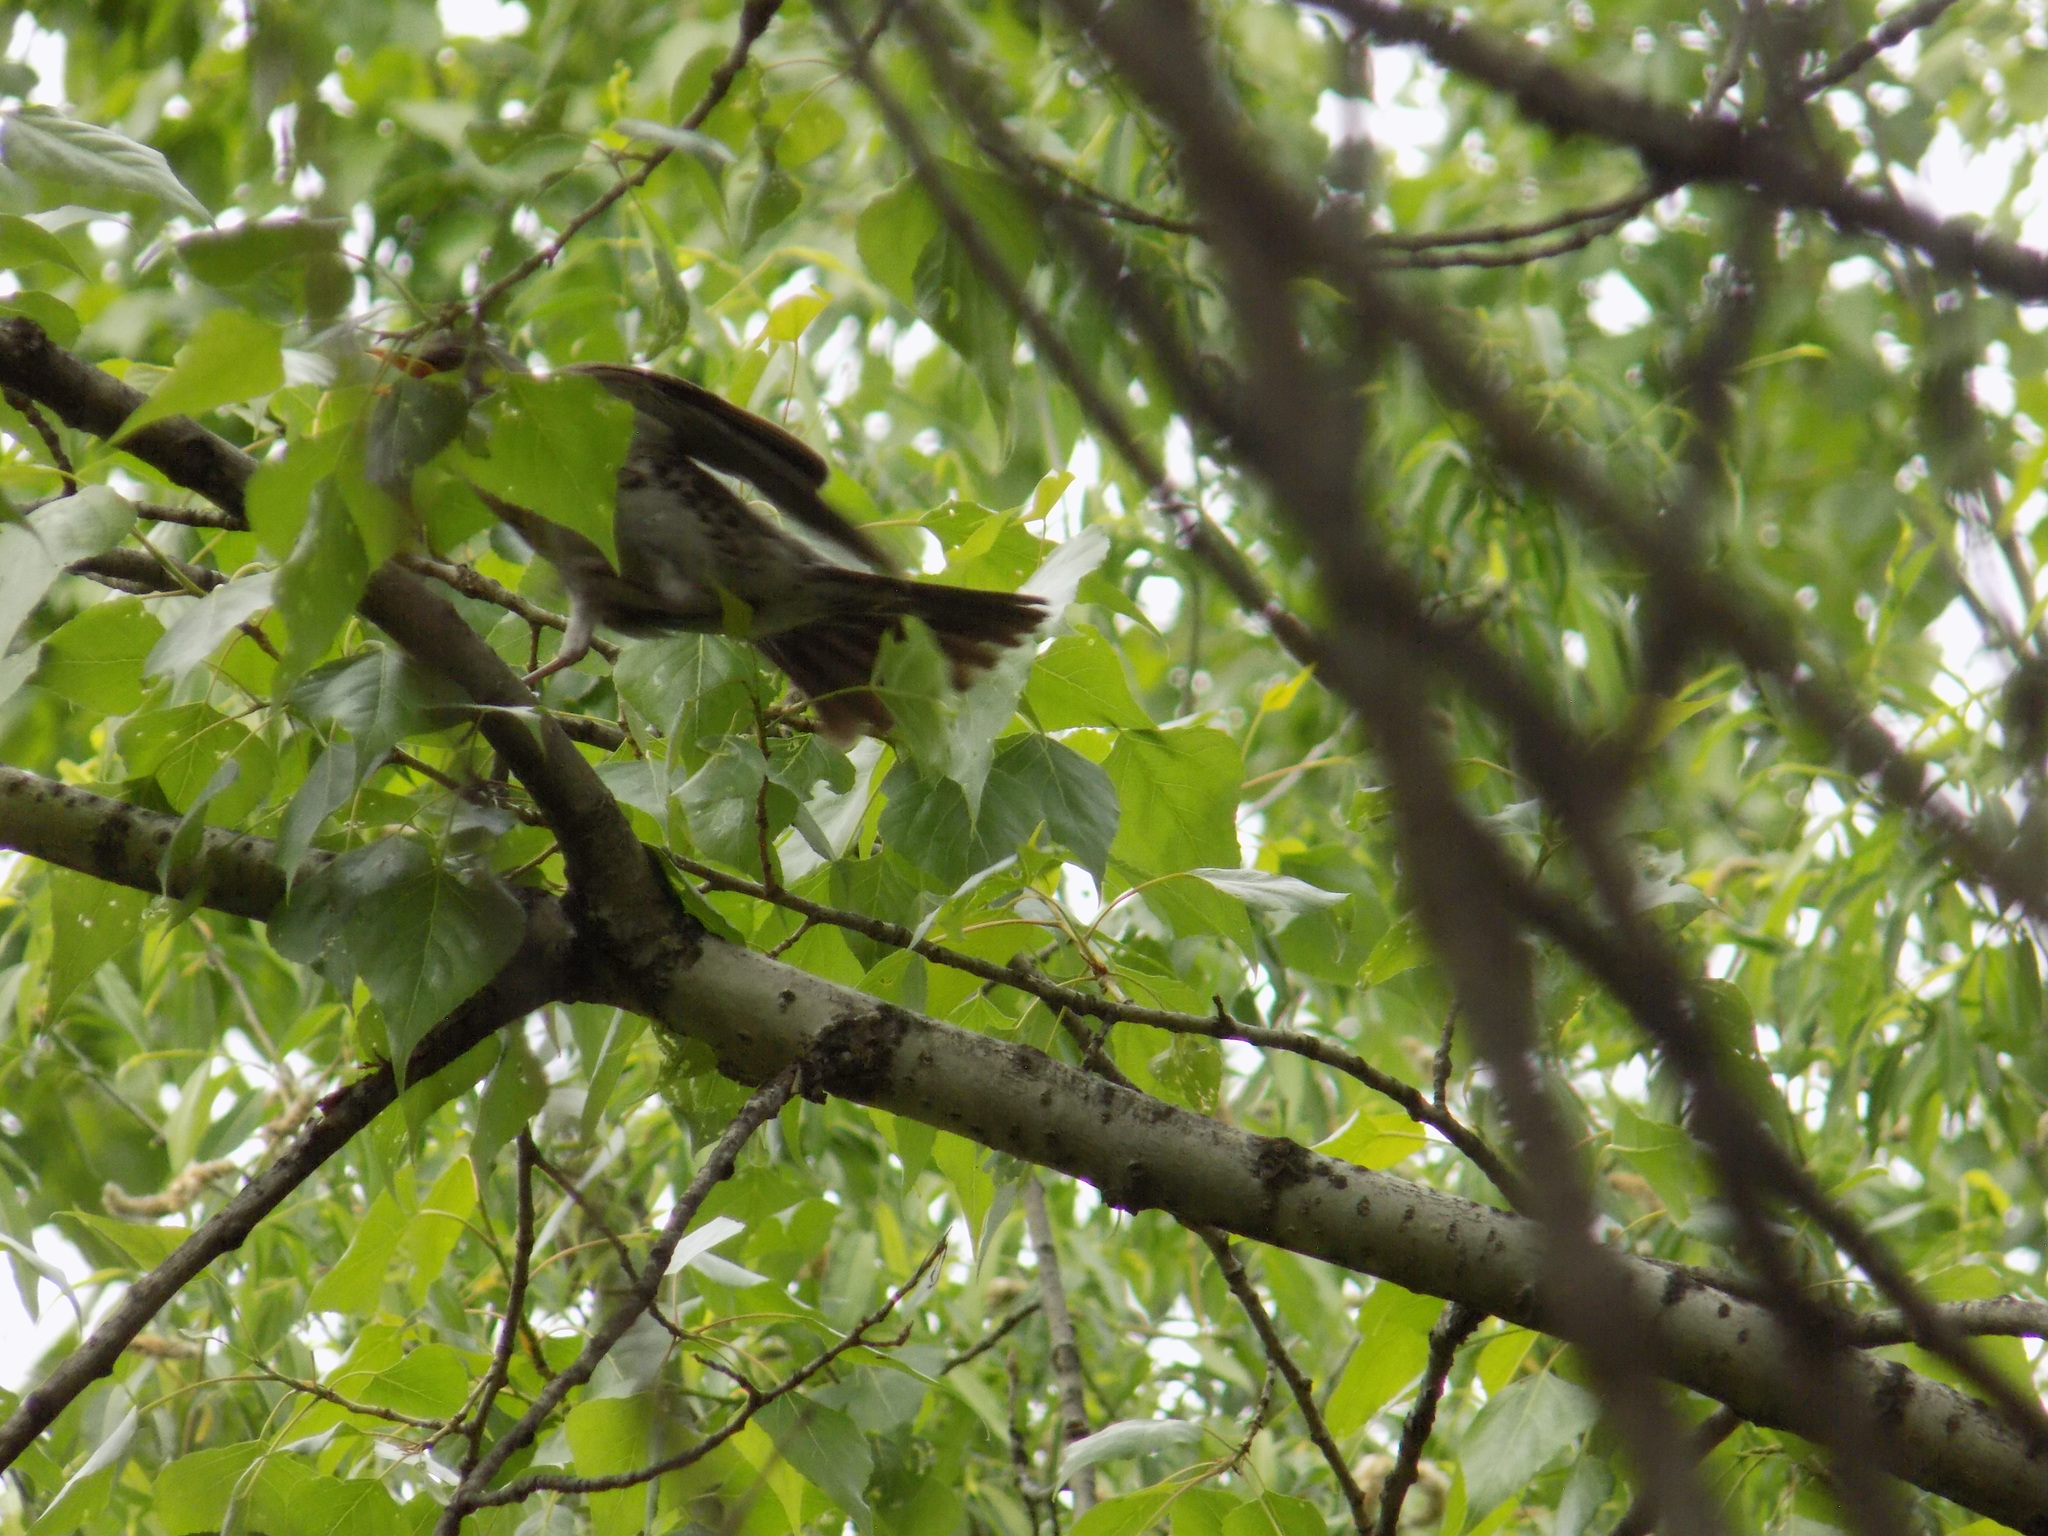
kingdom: Animalia
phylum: Chordata
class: Aves
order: Passeriformes
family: Turdidae
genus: Turdus
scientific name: Turdus pilaris
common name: Fieldfare
